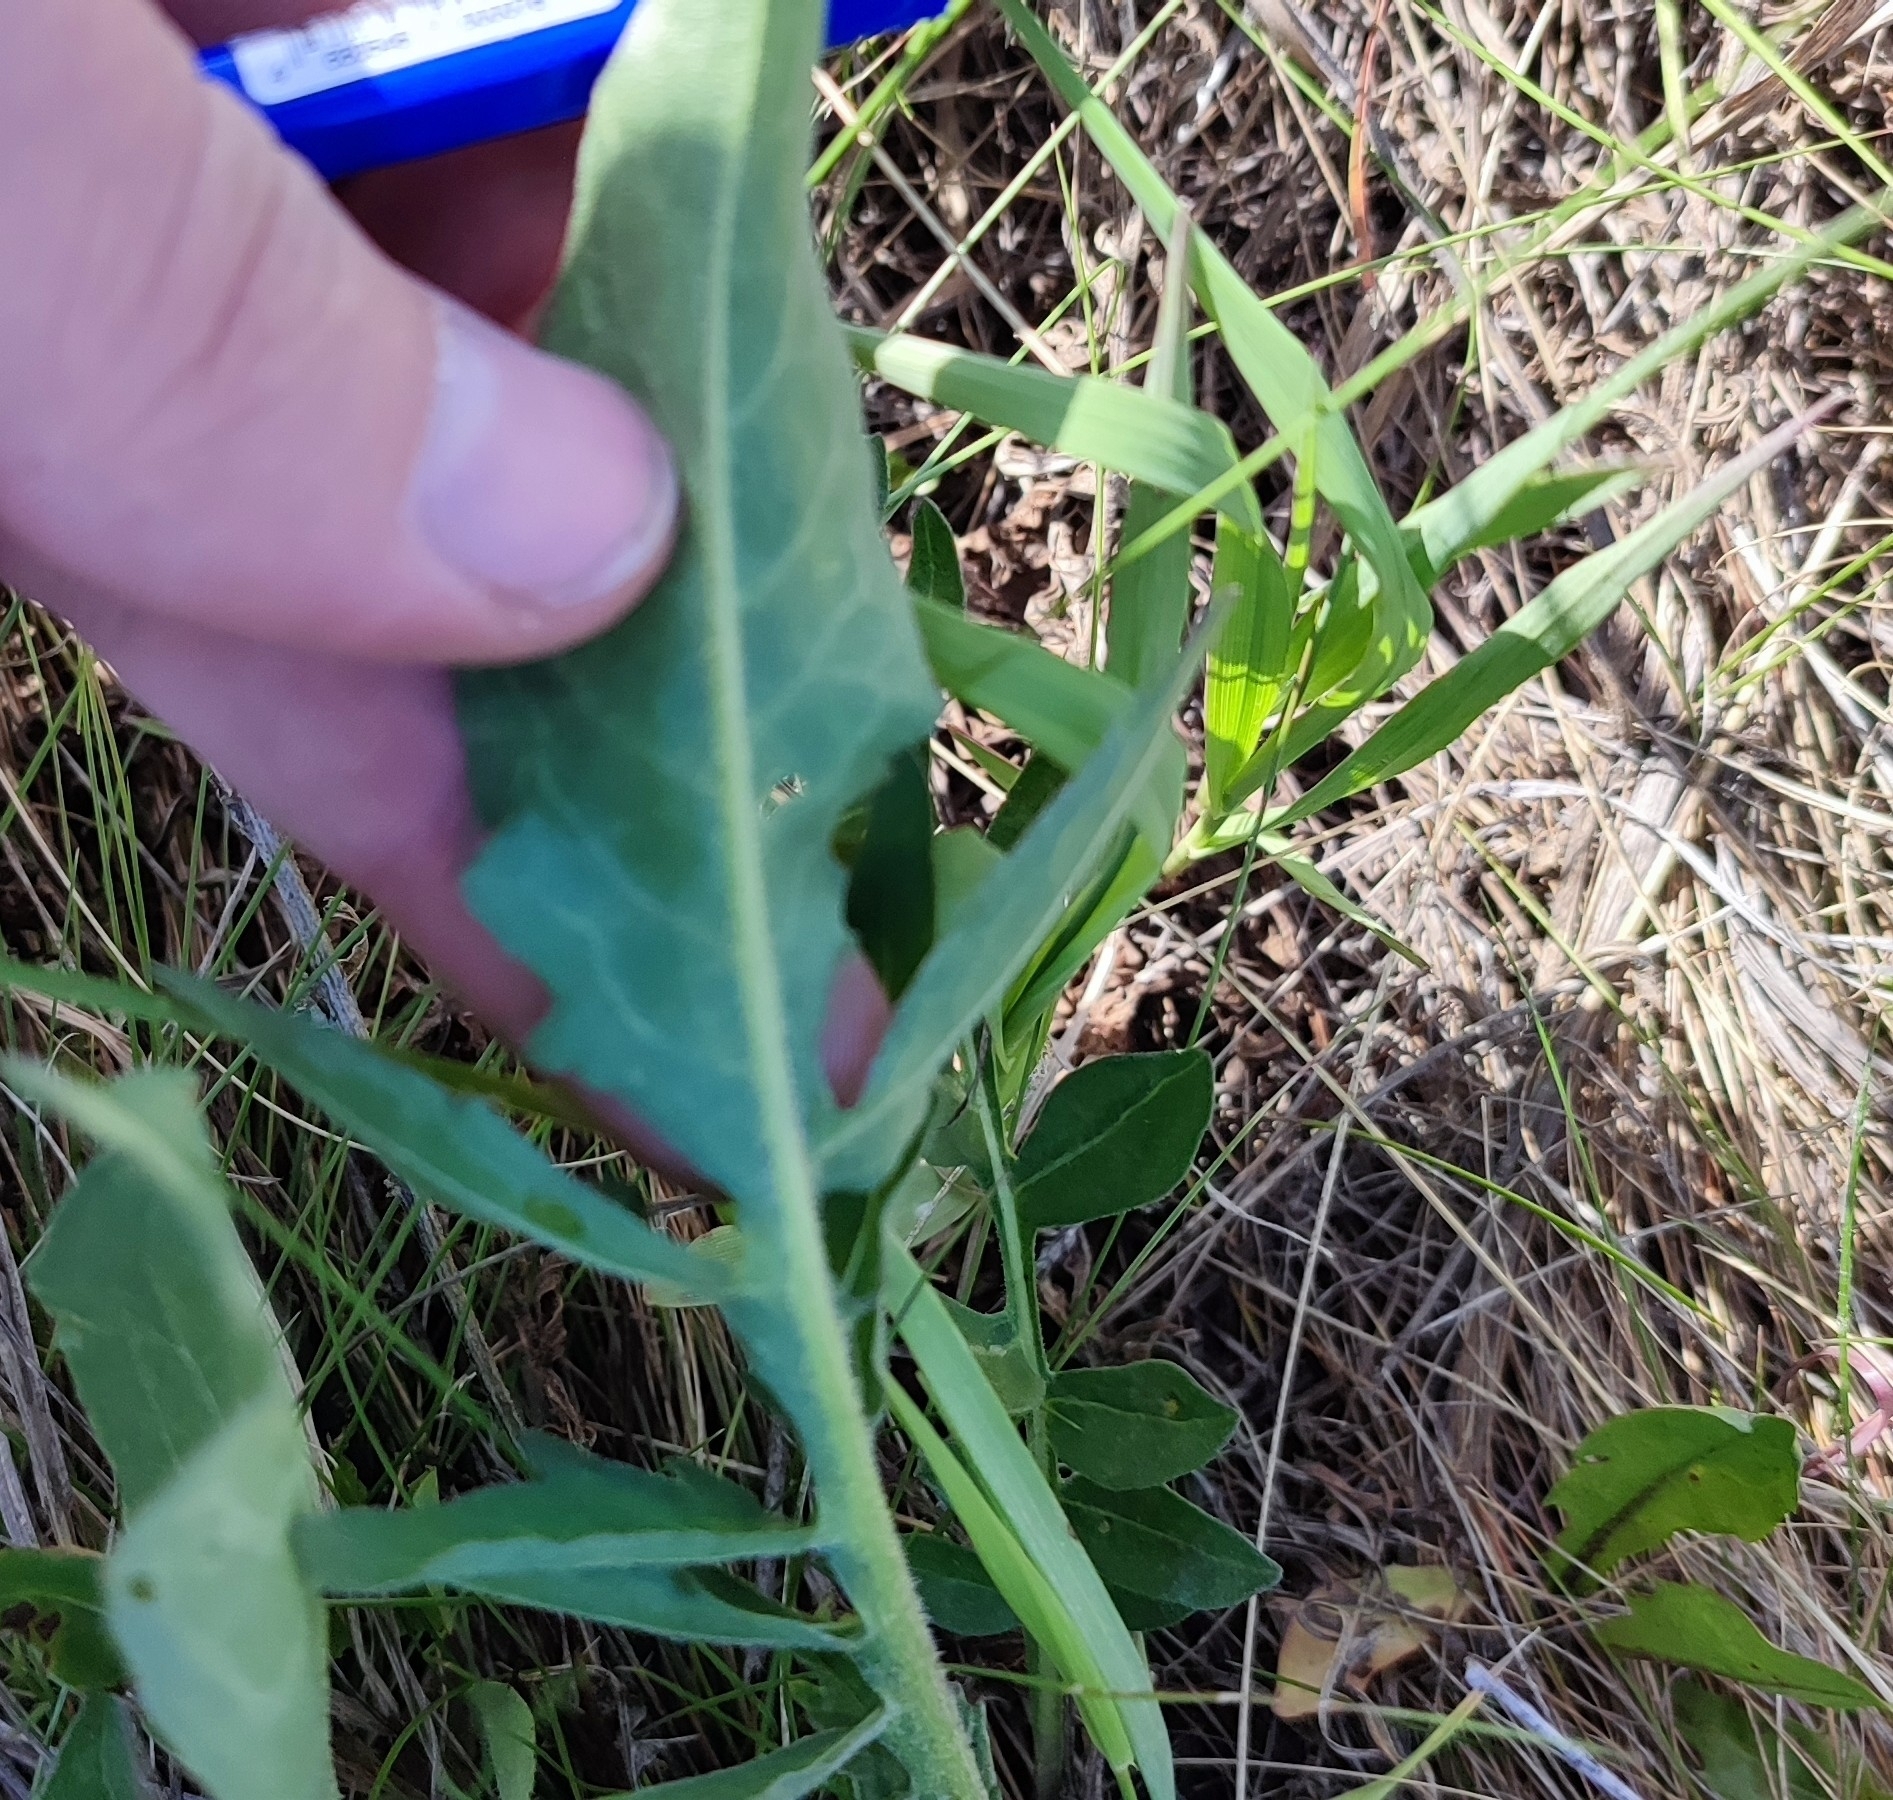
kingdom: Plantae
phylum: Tracheophyta
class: Magnoliopsida
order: Asterales
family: Asteraceae
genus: Centaurea
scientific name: Centaurea scabiosa
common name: Greater knapweed
